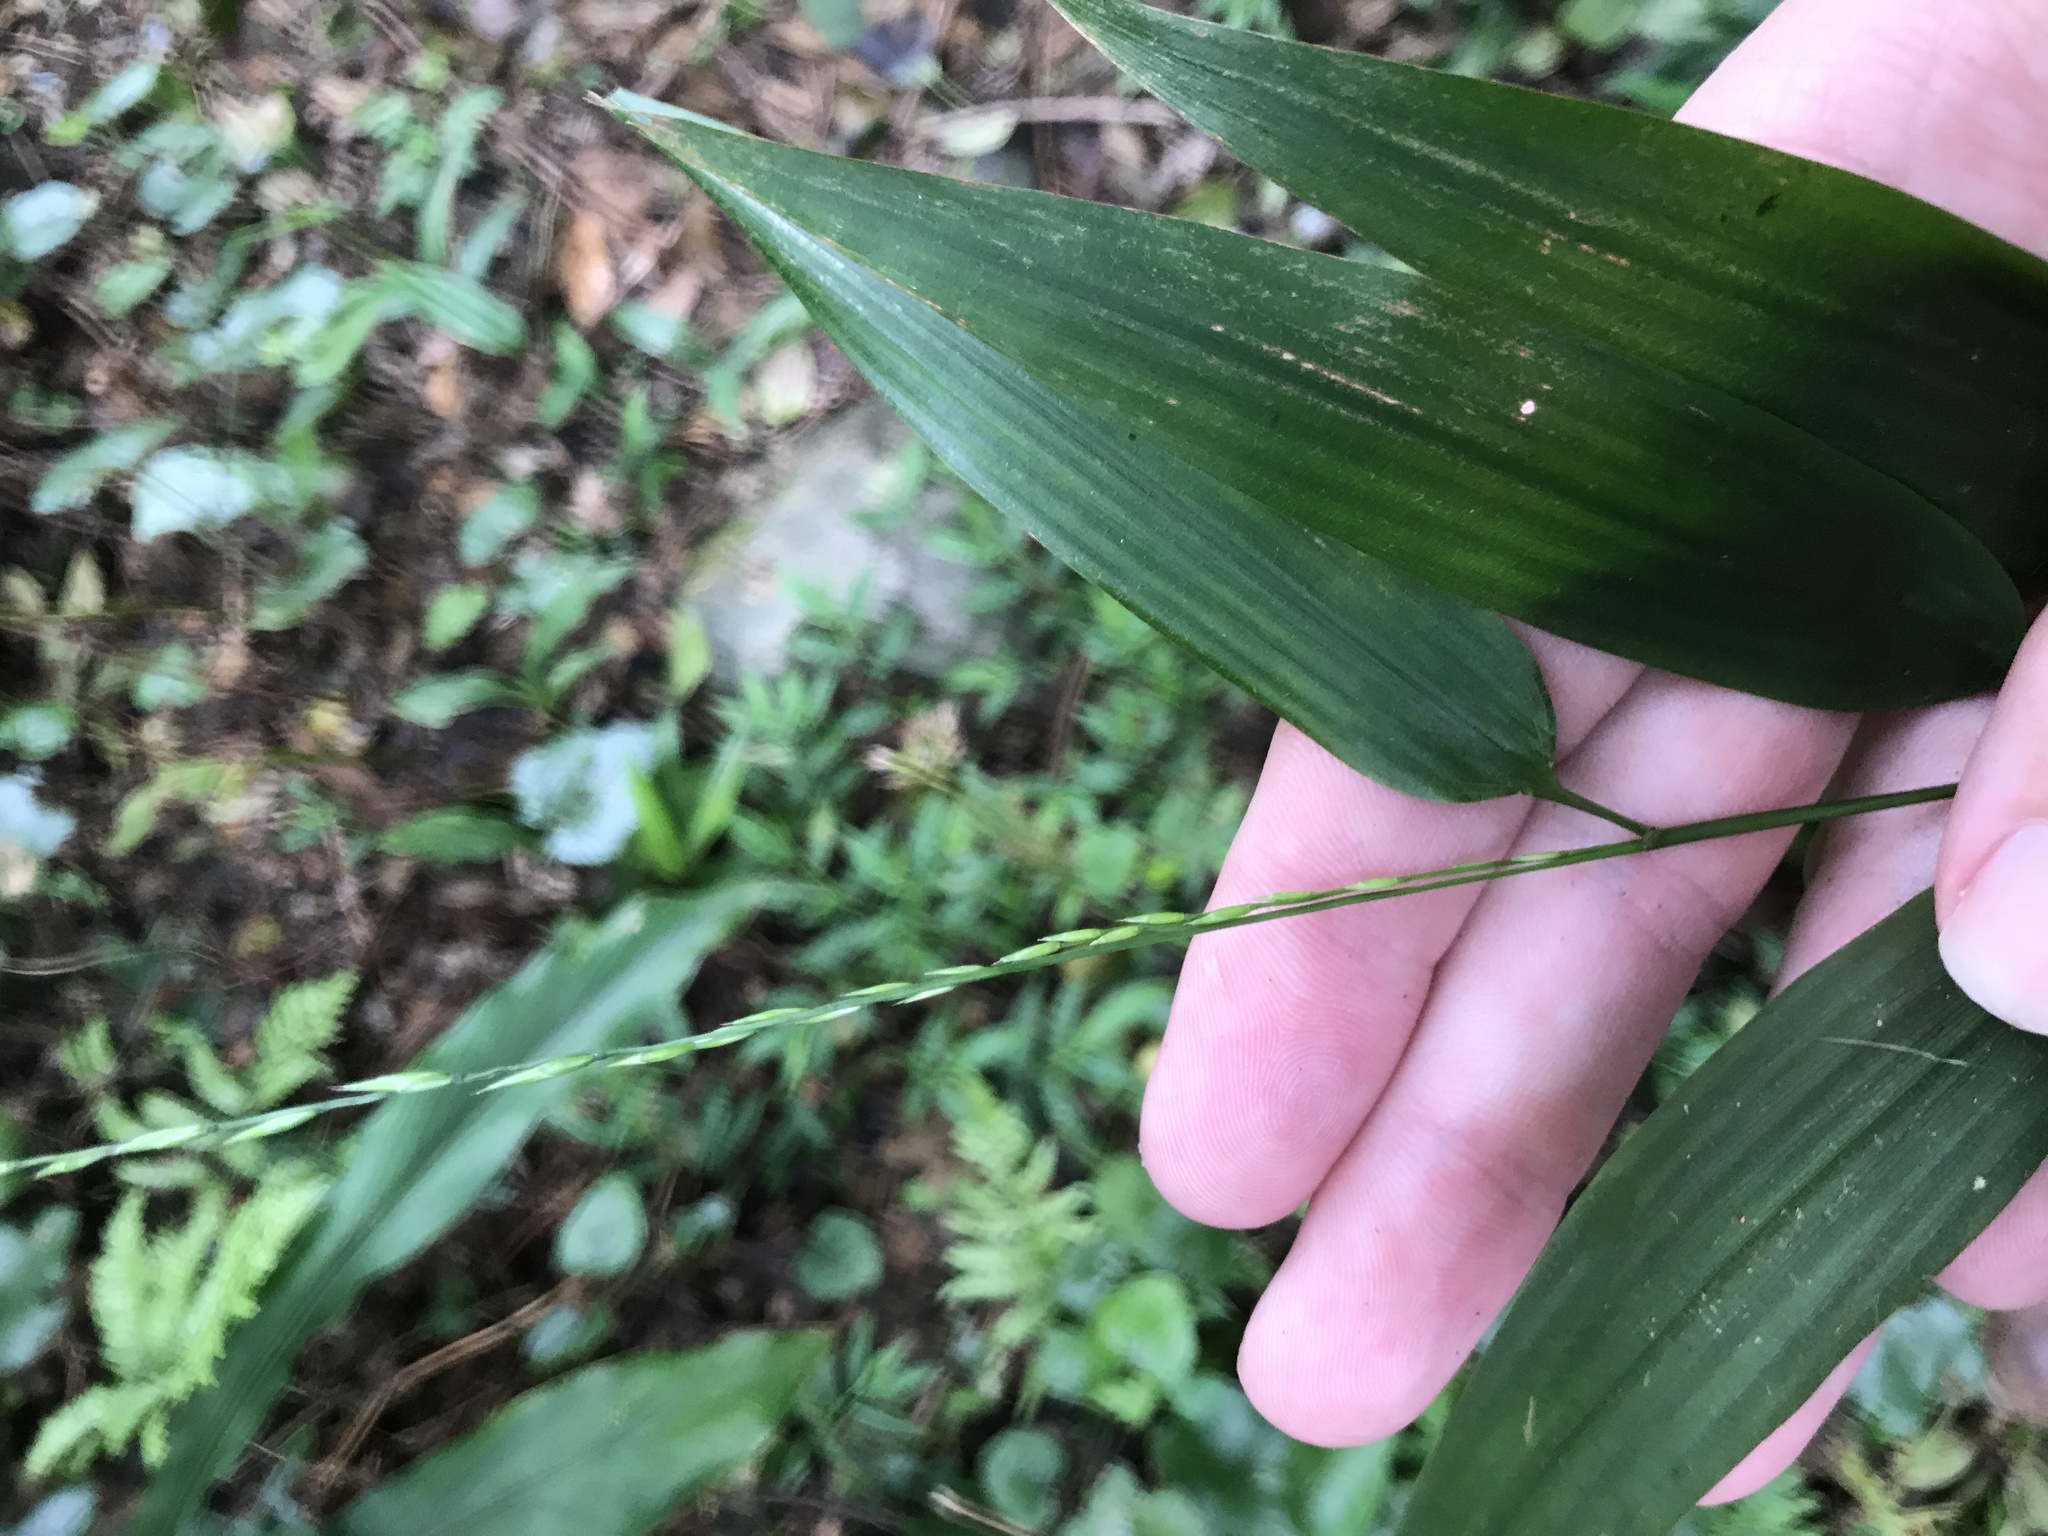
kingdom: Plantae
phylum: Tracheophyta
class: Liliopsida
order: Poales
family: Poaceae
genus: Lophatherum
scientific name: Lophatherum gracile
